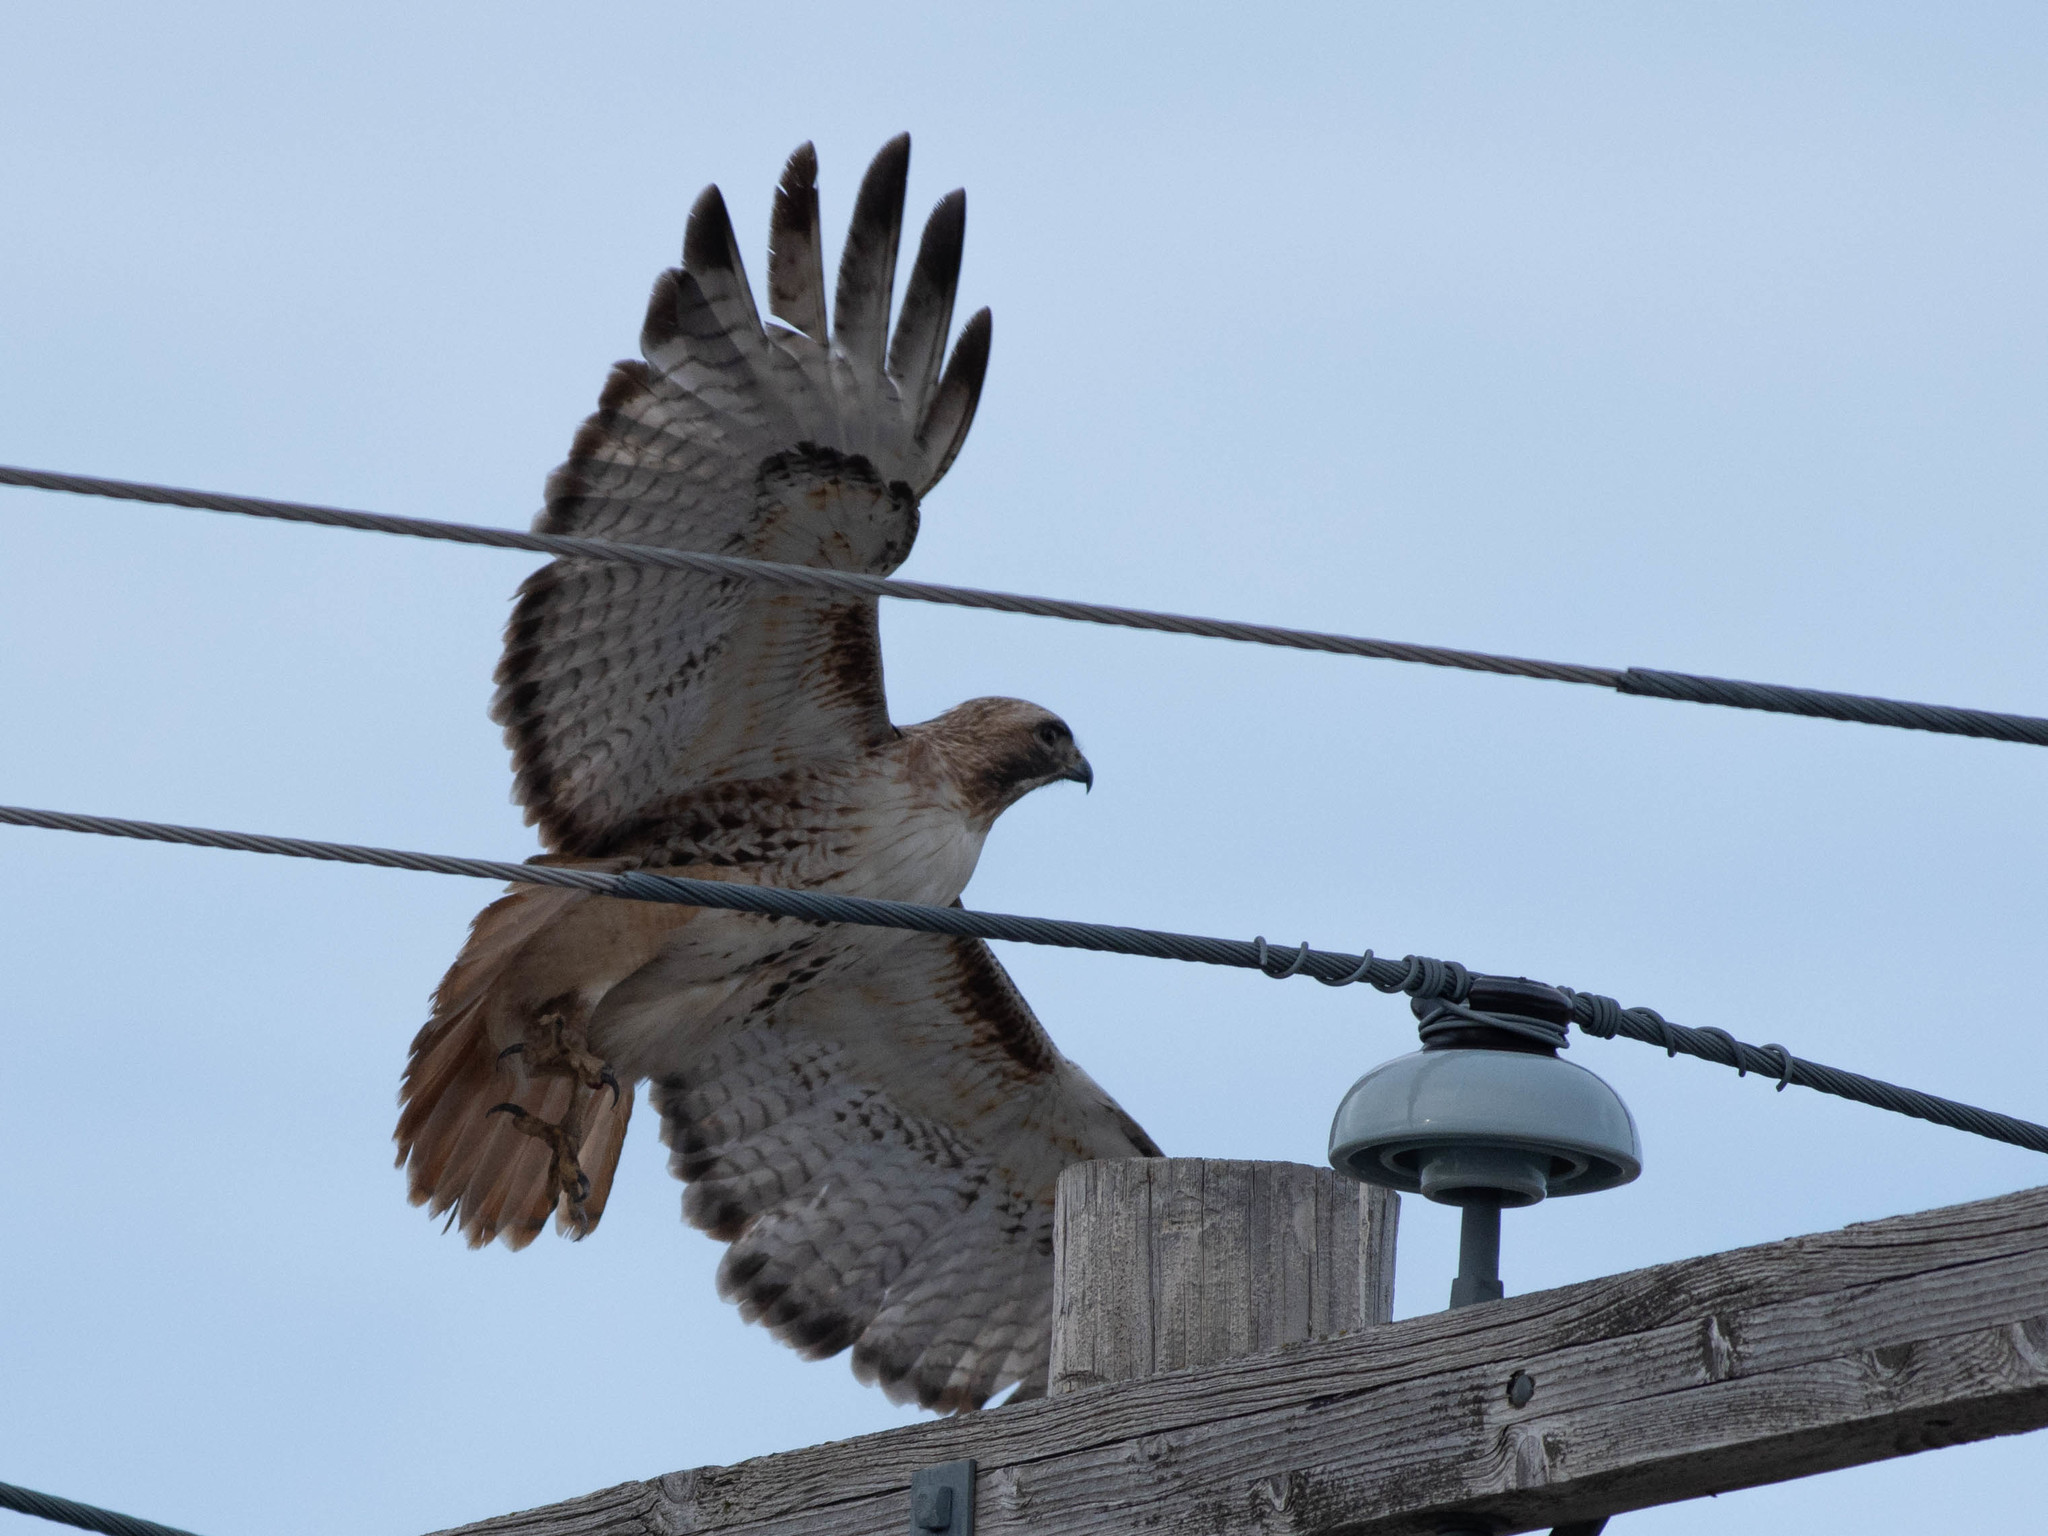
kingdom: Animalia
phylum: Chordata
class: Aves
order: Accipitriformes
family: Accipitridae
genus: Buteo
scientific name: Buteo jamaicensis
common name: Red-tailed hawk
